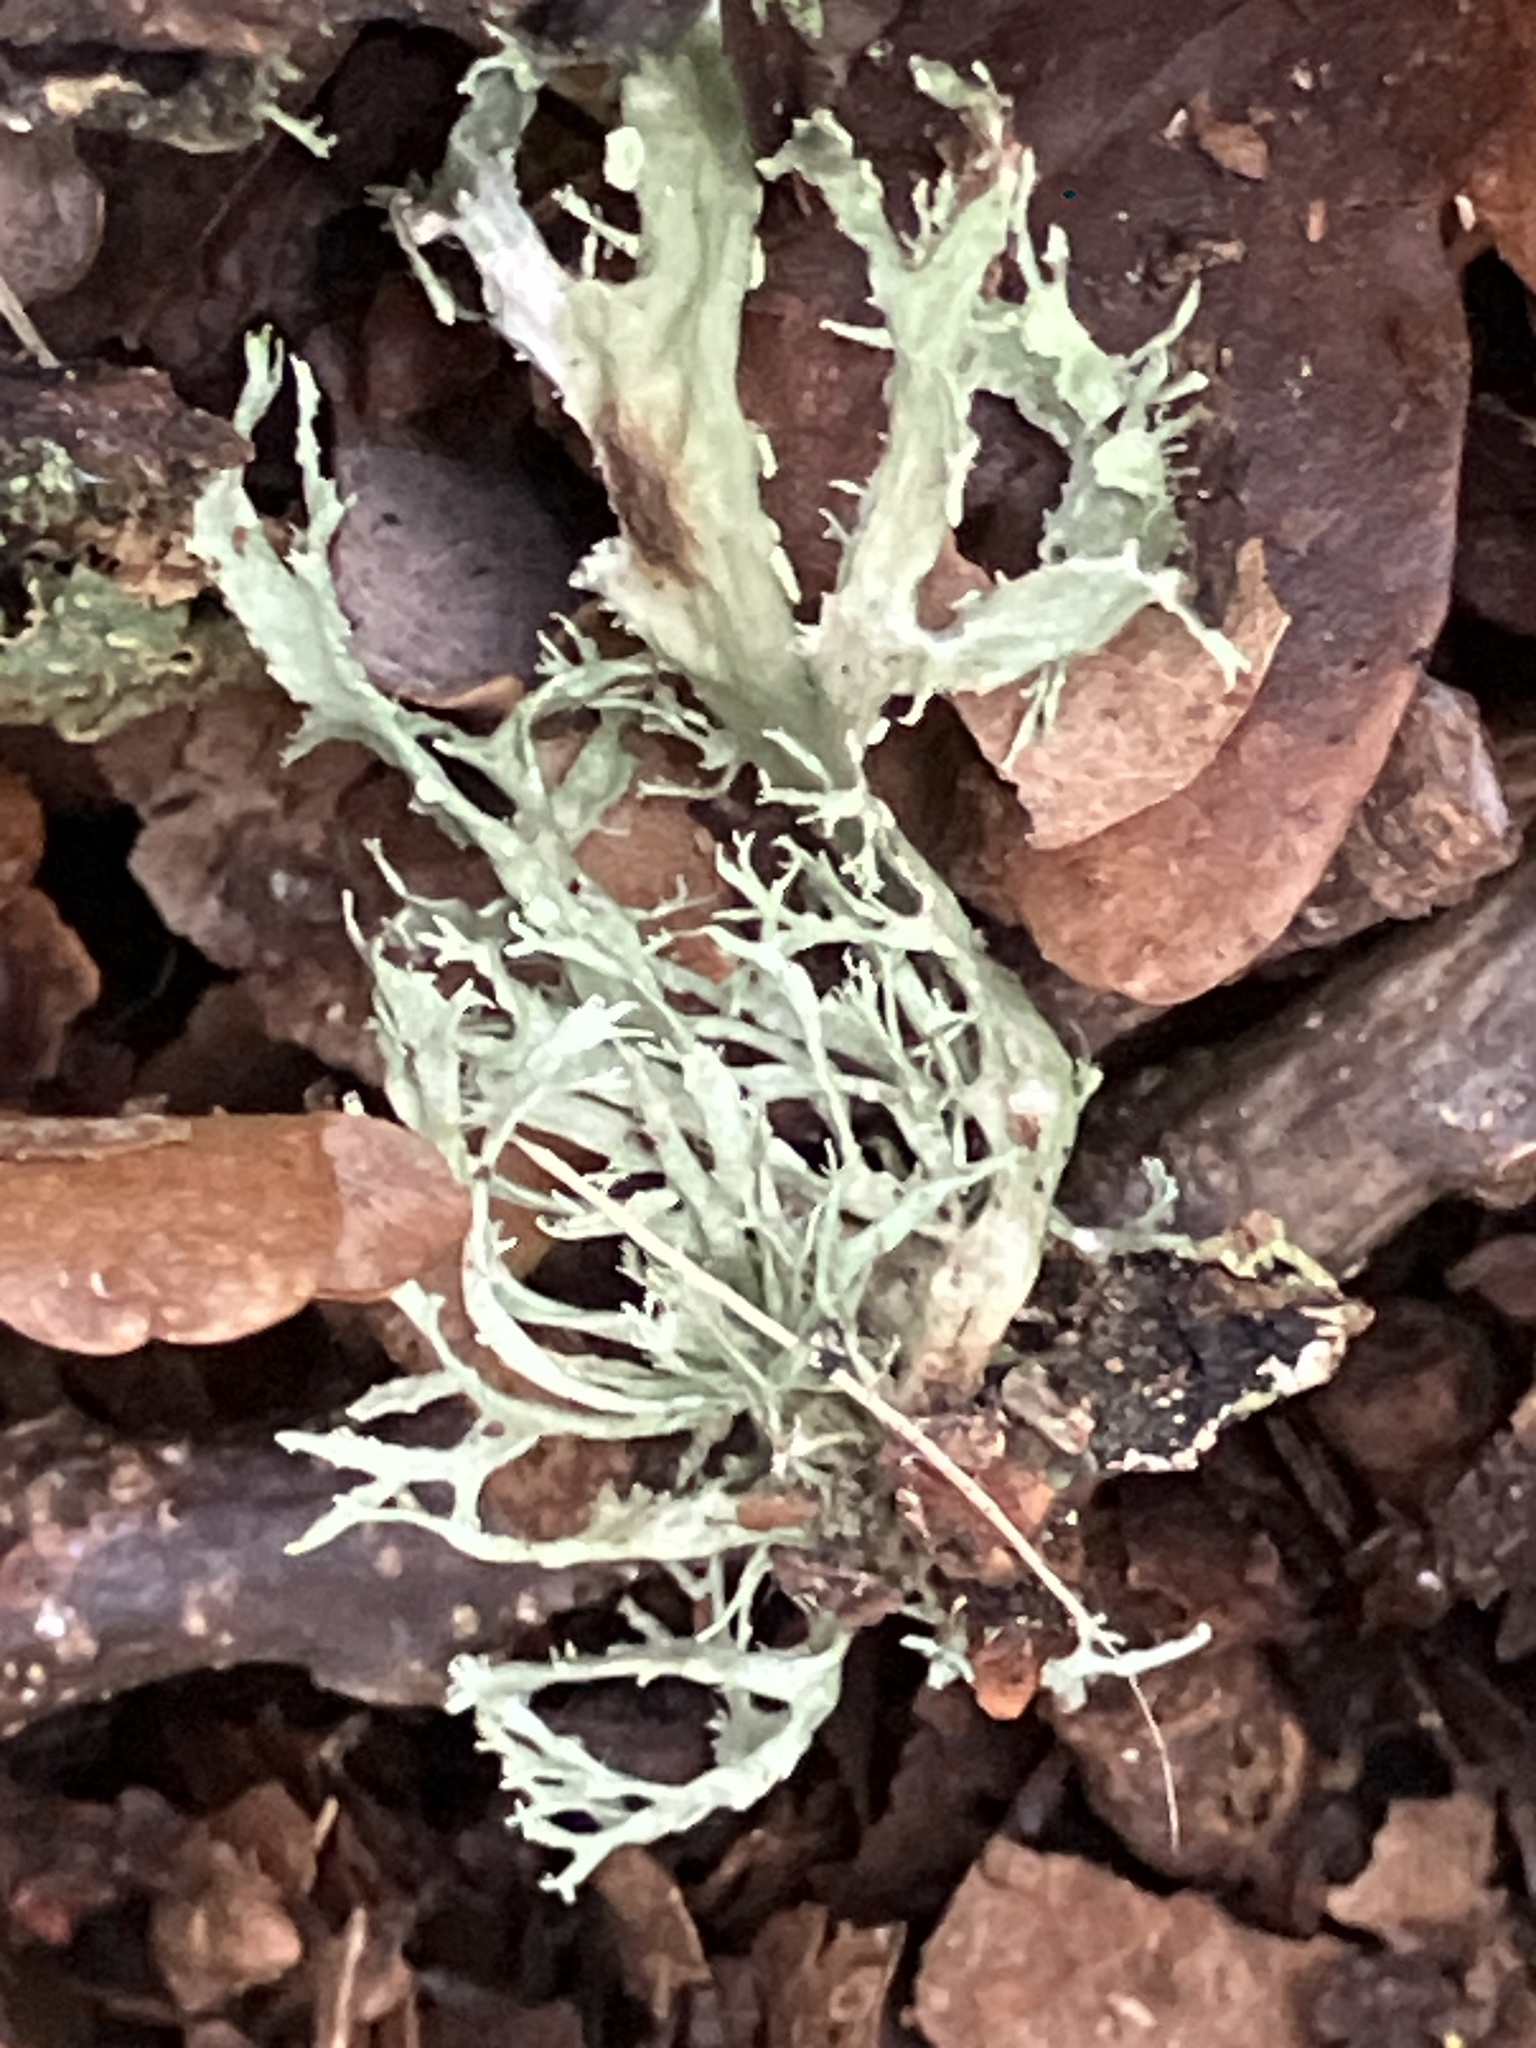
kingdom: Fungi
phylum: Ascomycota
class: Lecanoromycetes
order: Lecanorales
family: Ramalinaceae
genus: Ramalina
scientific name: Ramalina farinacea
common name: Farinose cartilage lichen
